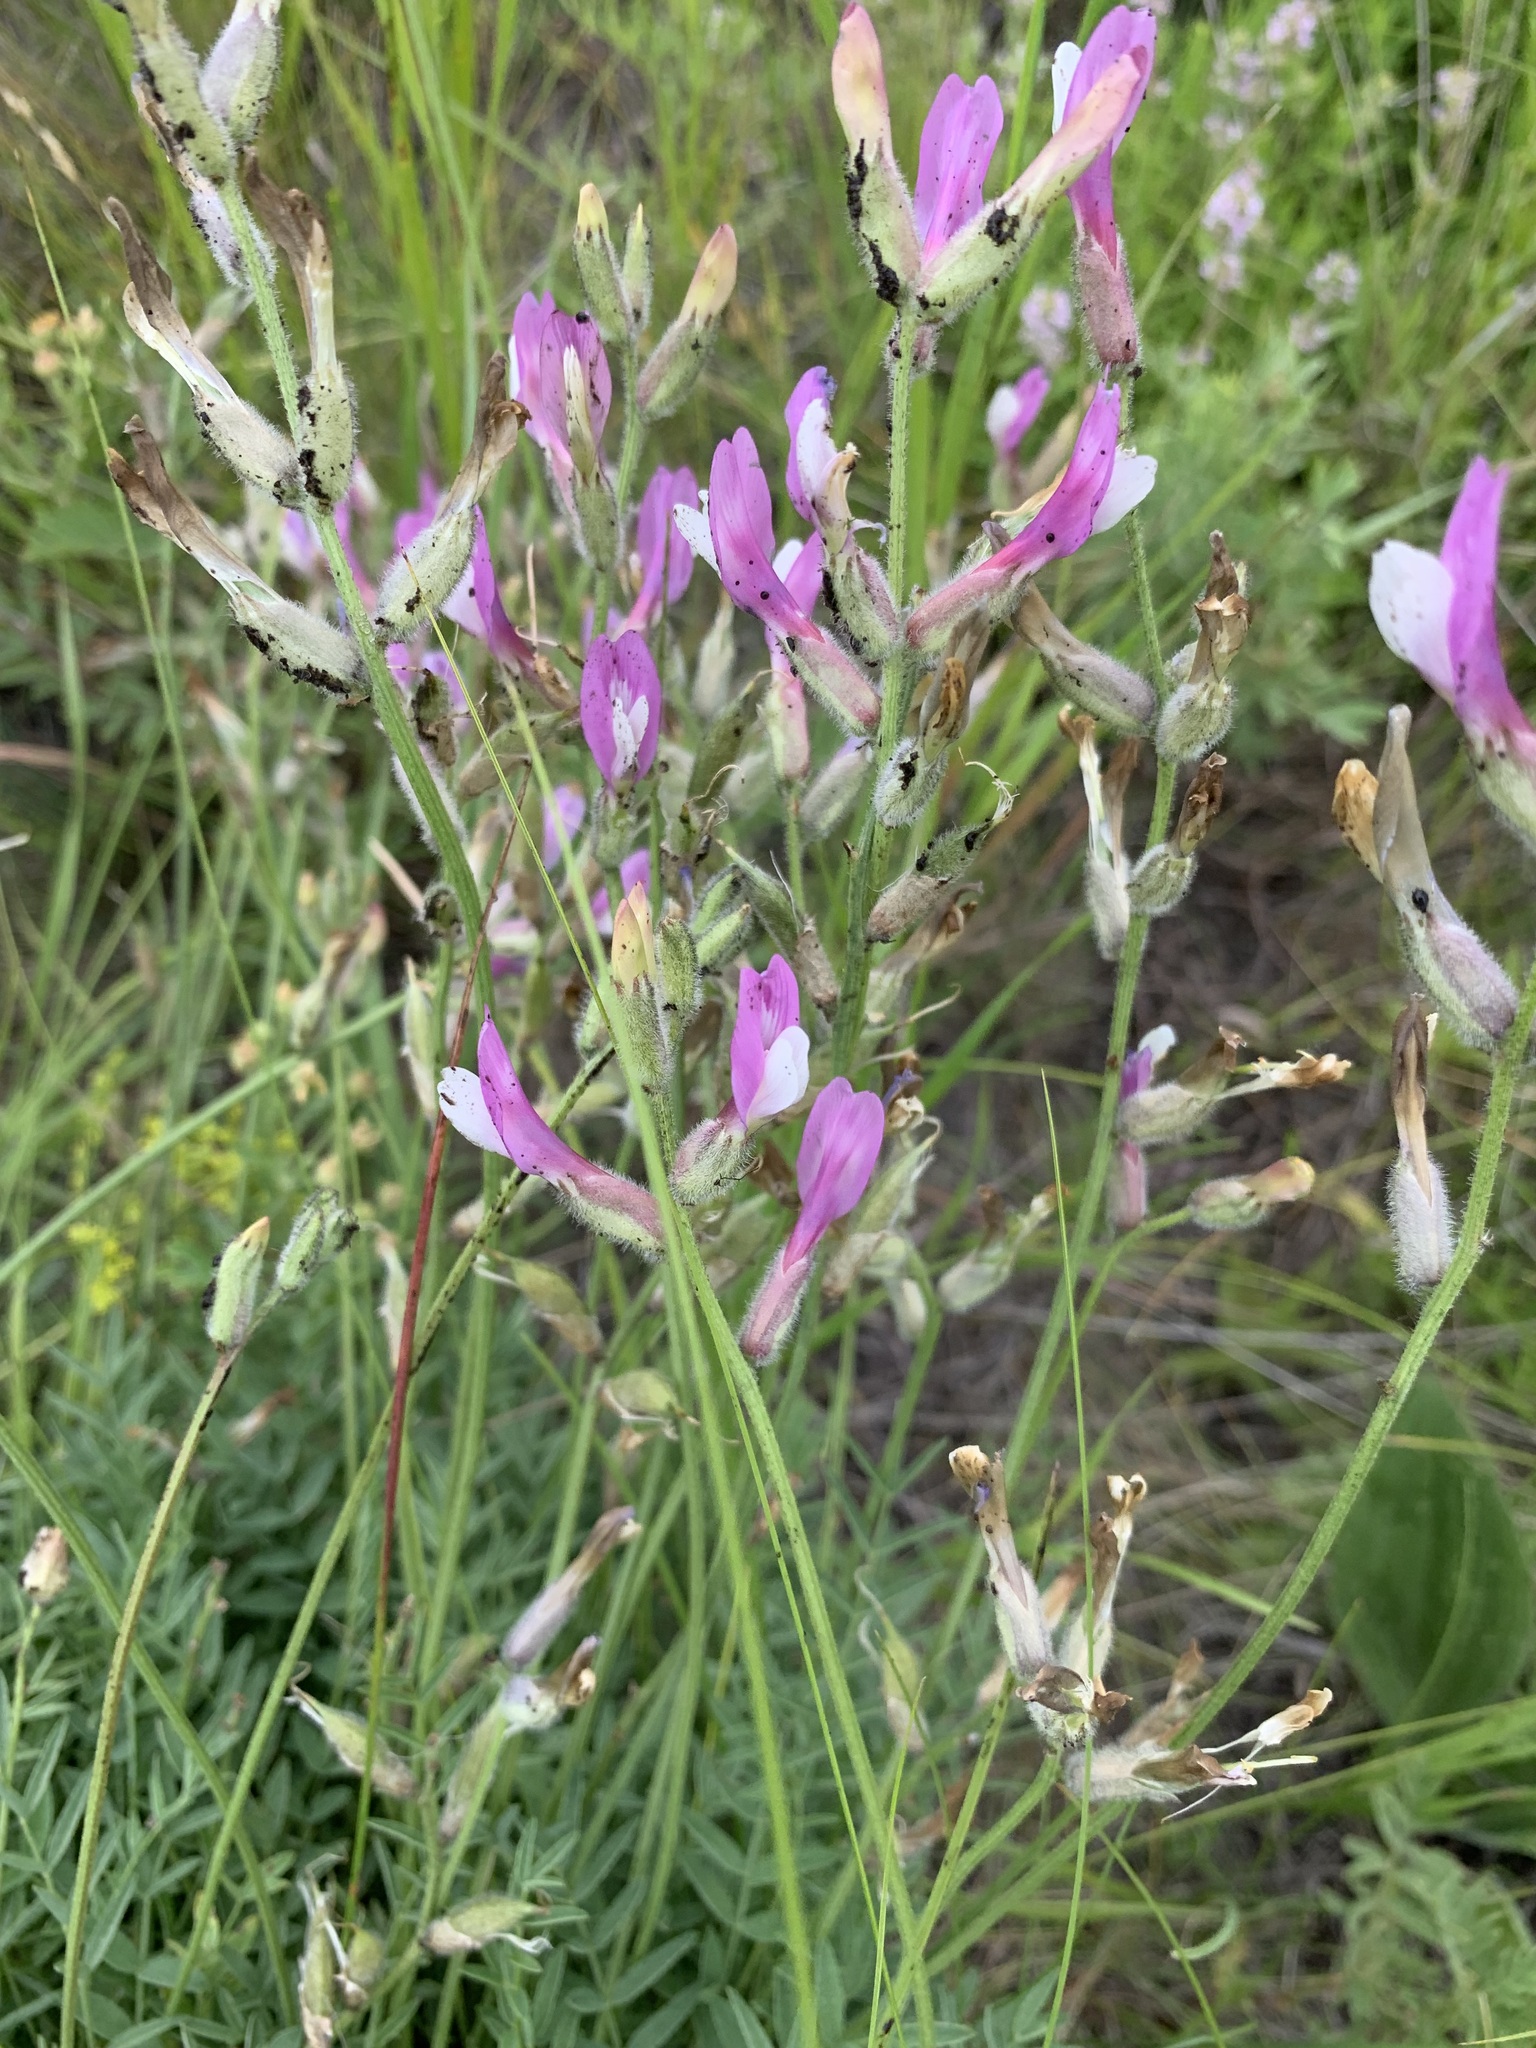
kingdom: Plantae
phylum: Tracheophyta
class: Magnoliopsida
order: Fabales
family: Fabaceae
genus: Astragalus
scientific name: Astragalus macropus
